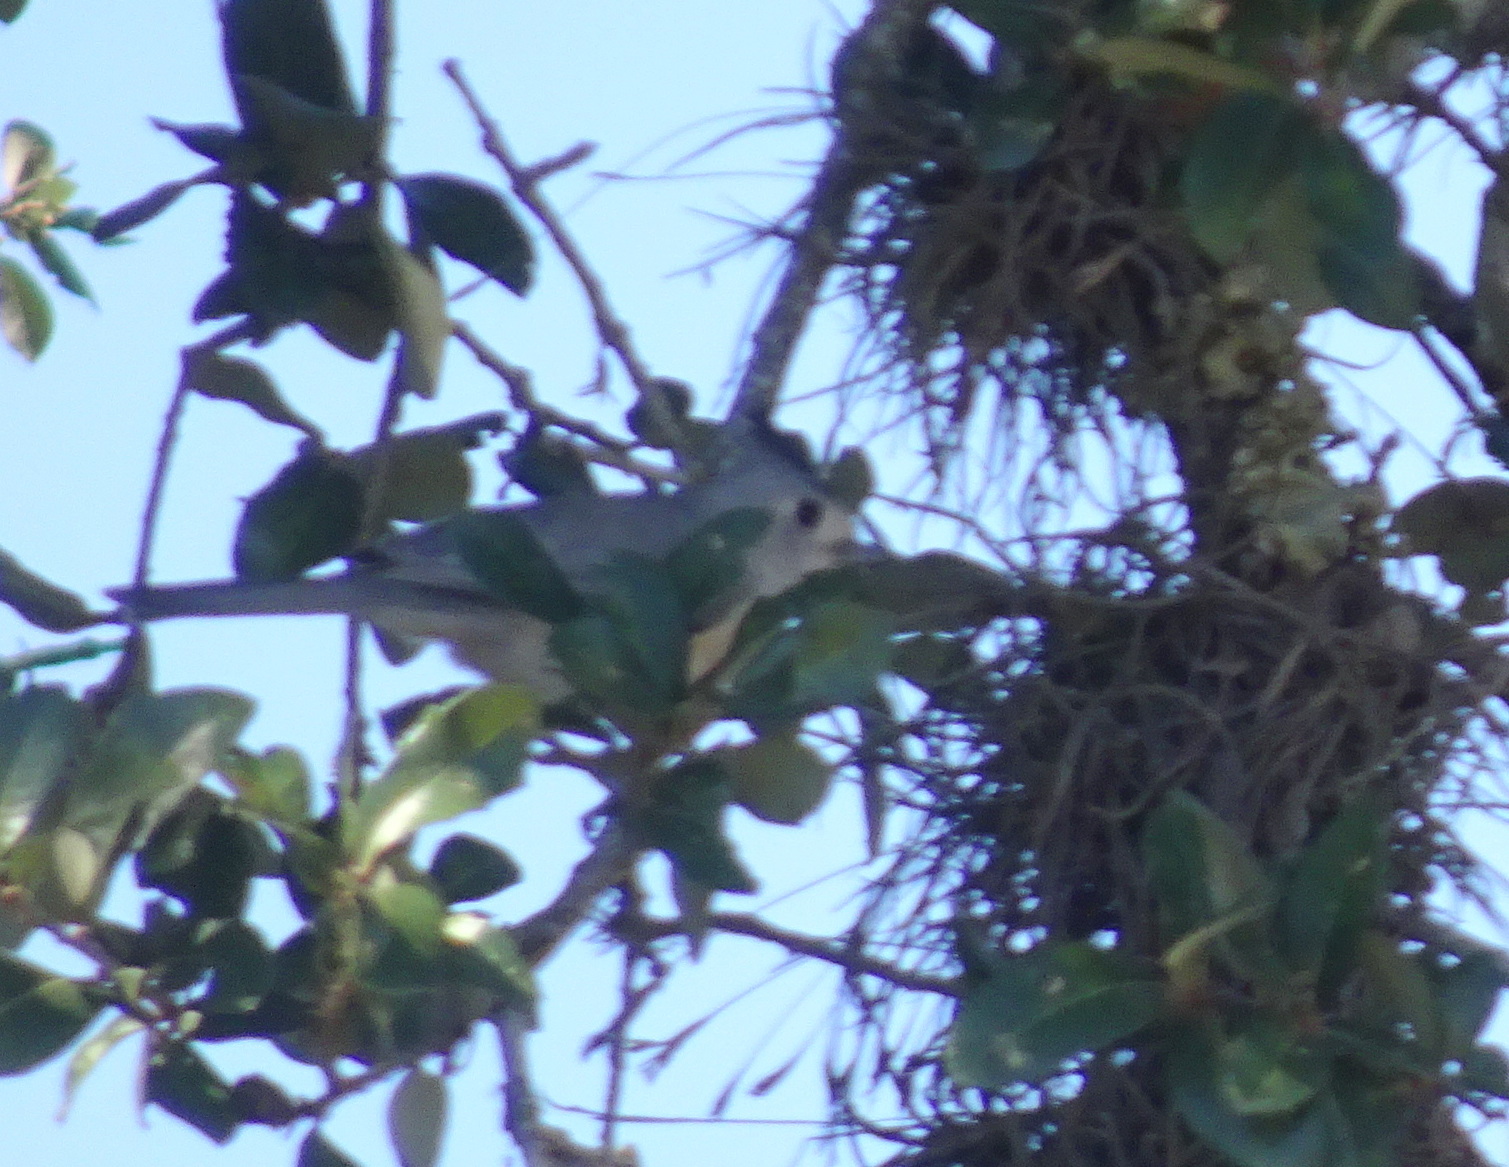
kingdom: Animalia
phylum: Chordata
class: Aves
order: Passeriformes
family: Paridae
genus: Baeolophus
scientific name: Baeolophus atricristatus
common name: Black-crested titmouse
